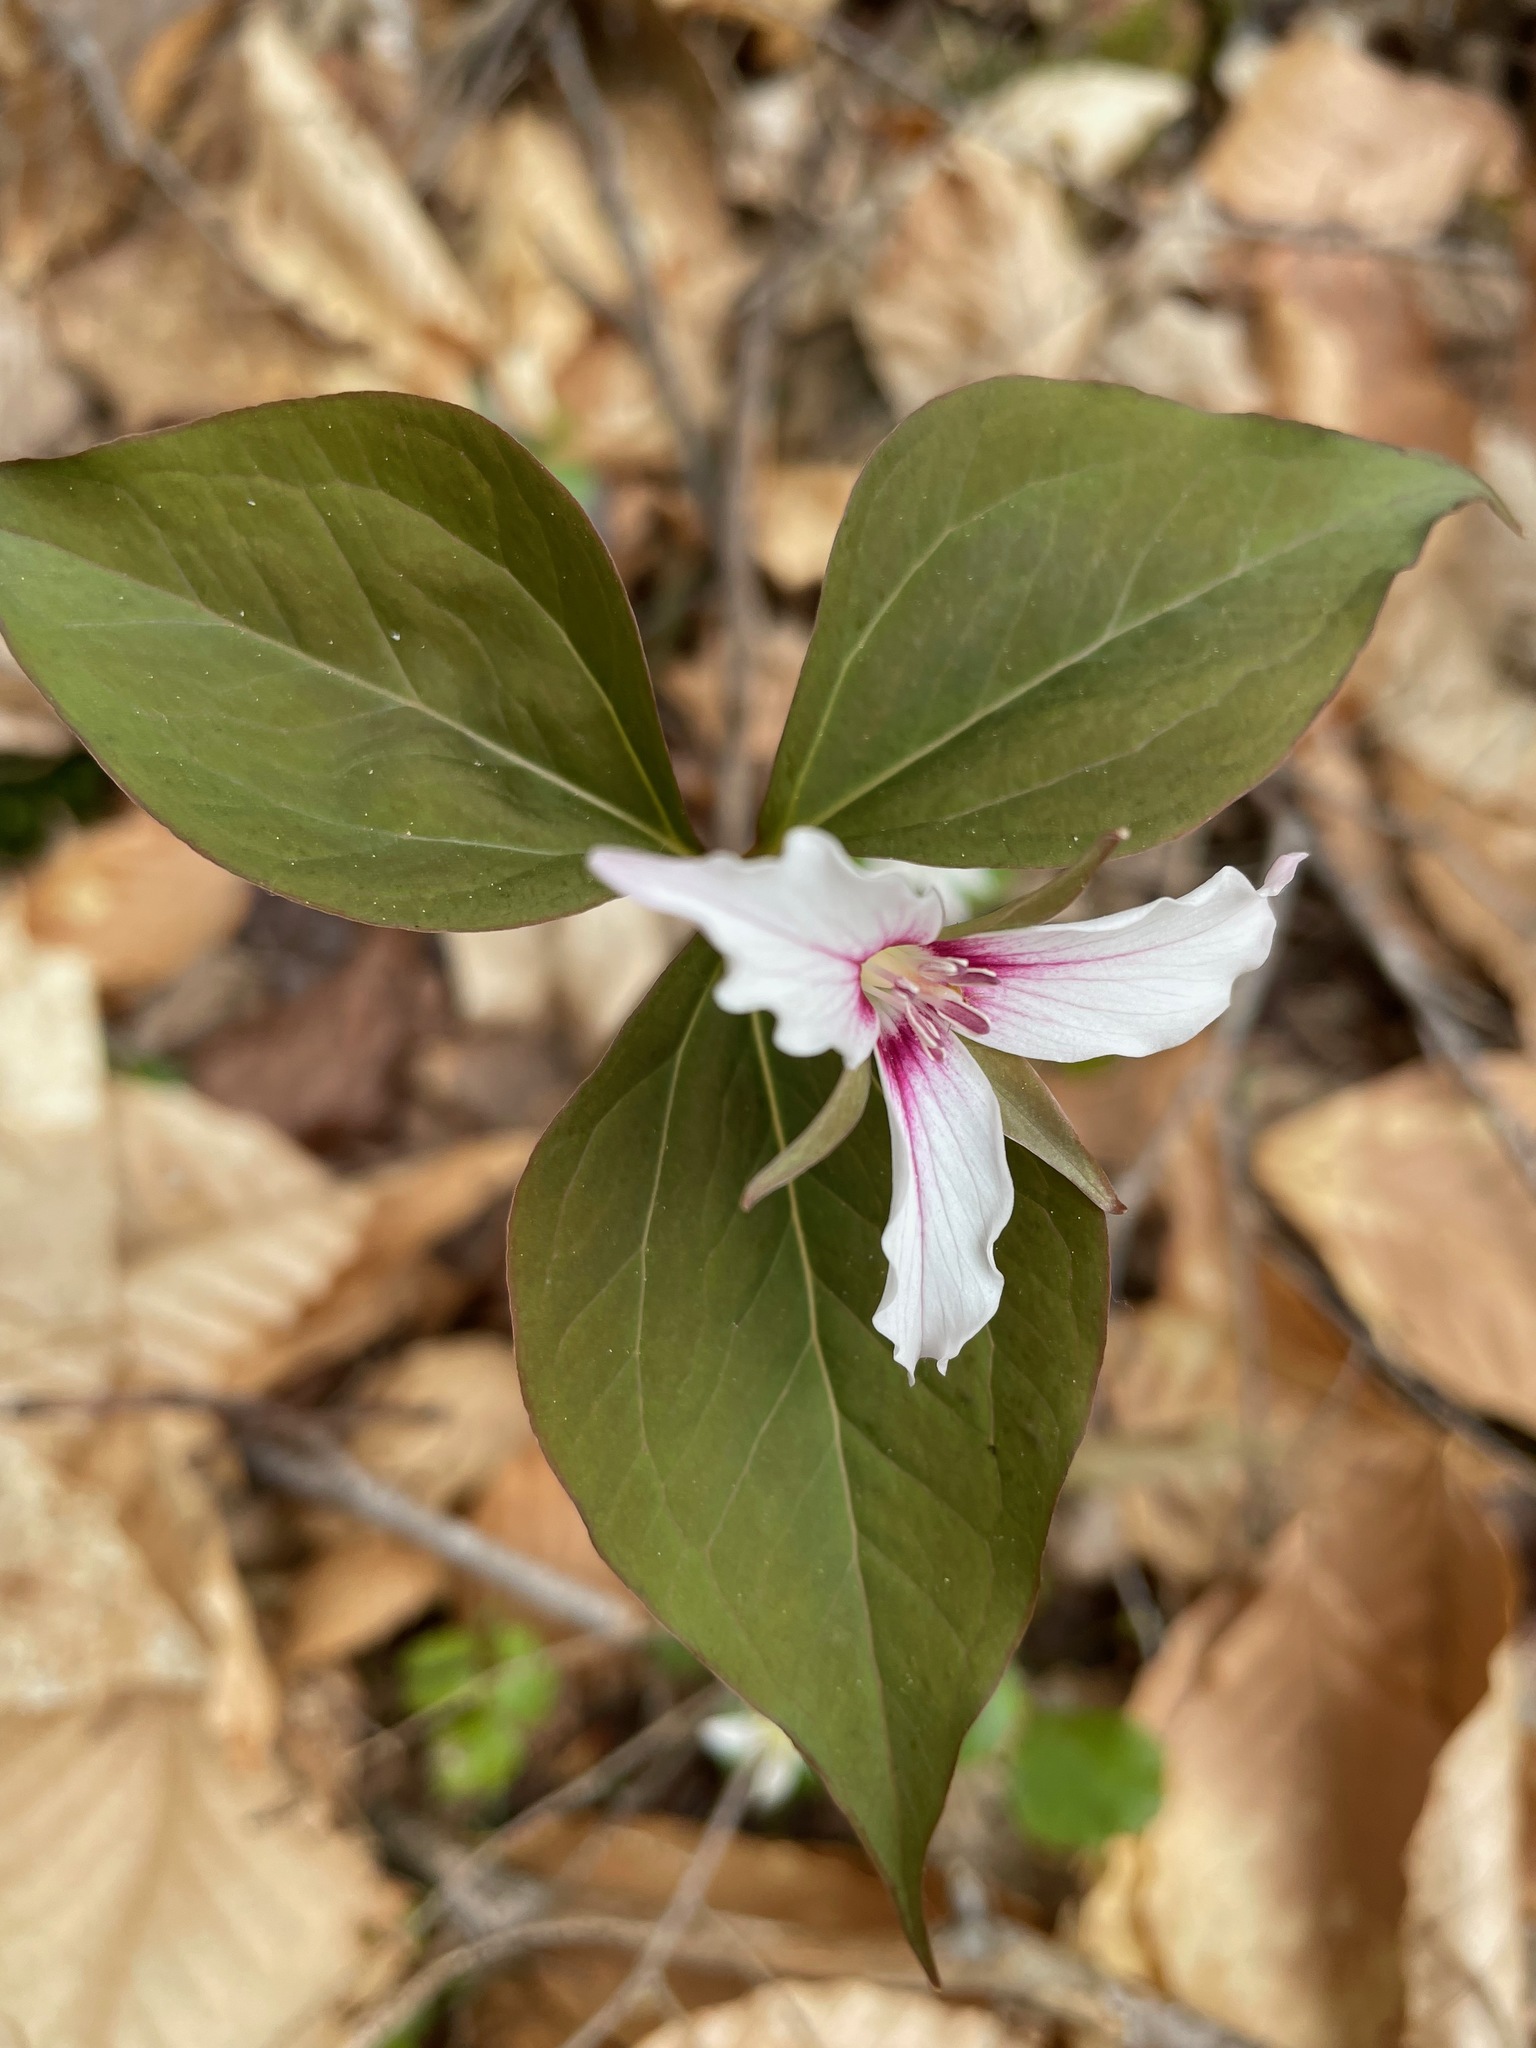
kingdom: Plantae
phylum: Tracheophyta
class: Liliopsida
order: Liliales
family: Melanthiaceae
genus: Trillium
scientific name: Trillium undulatum
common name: Paint trillium
